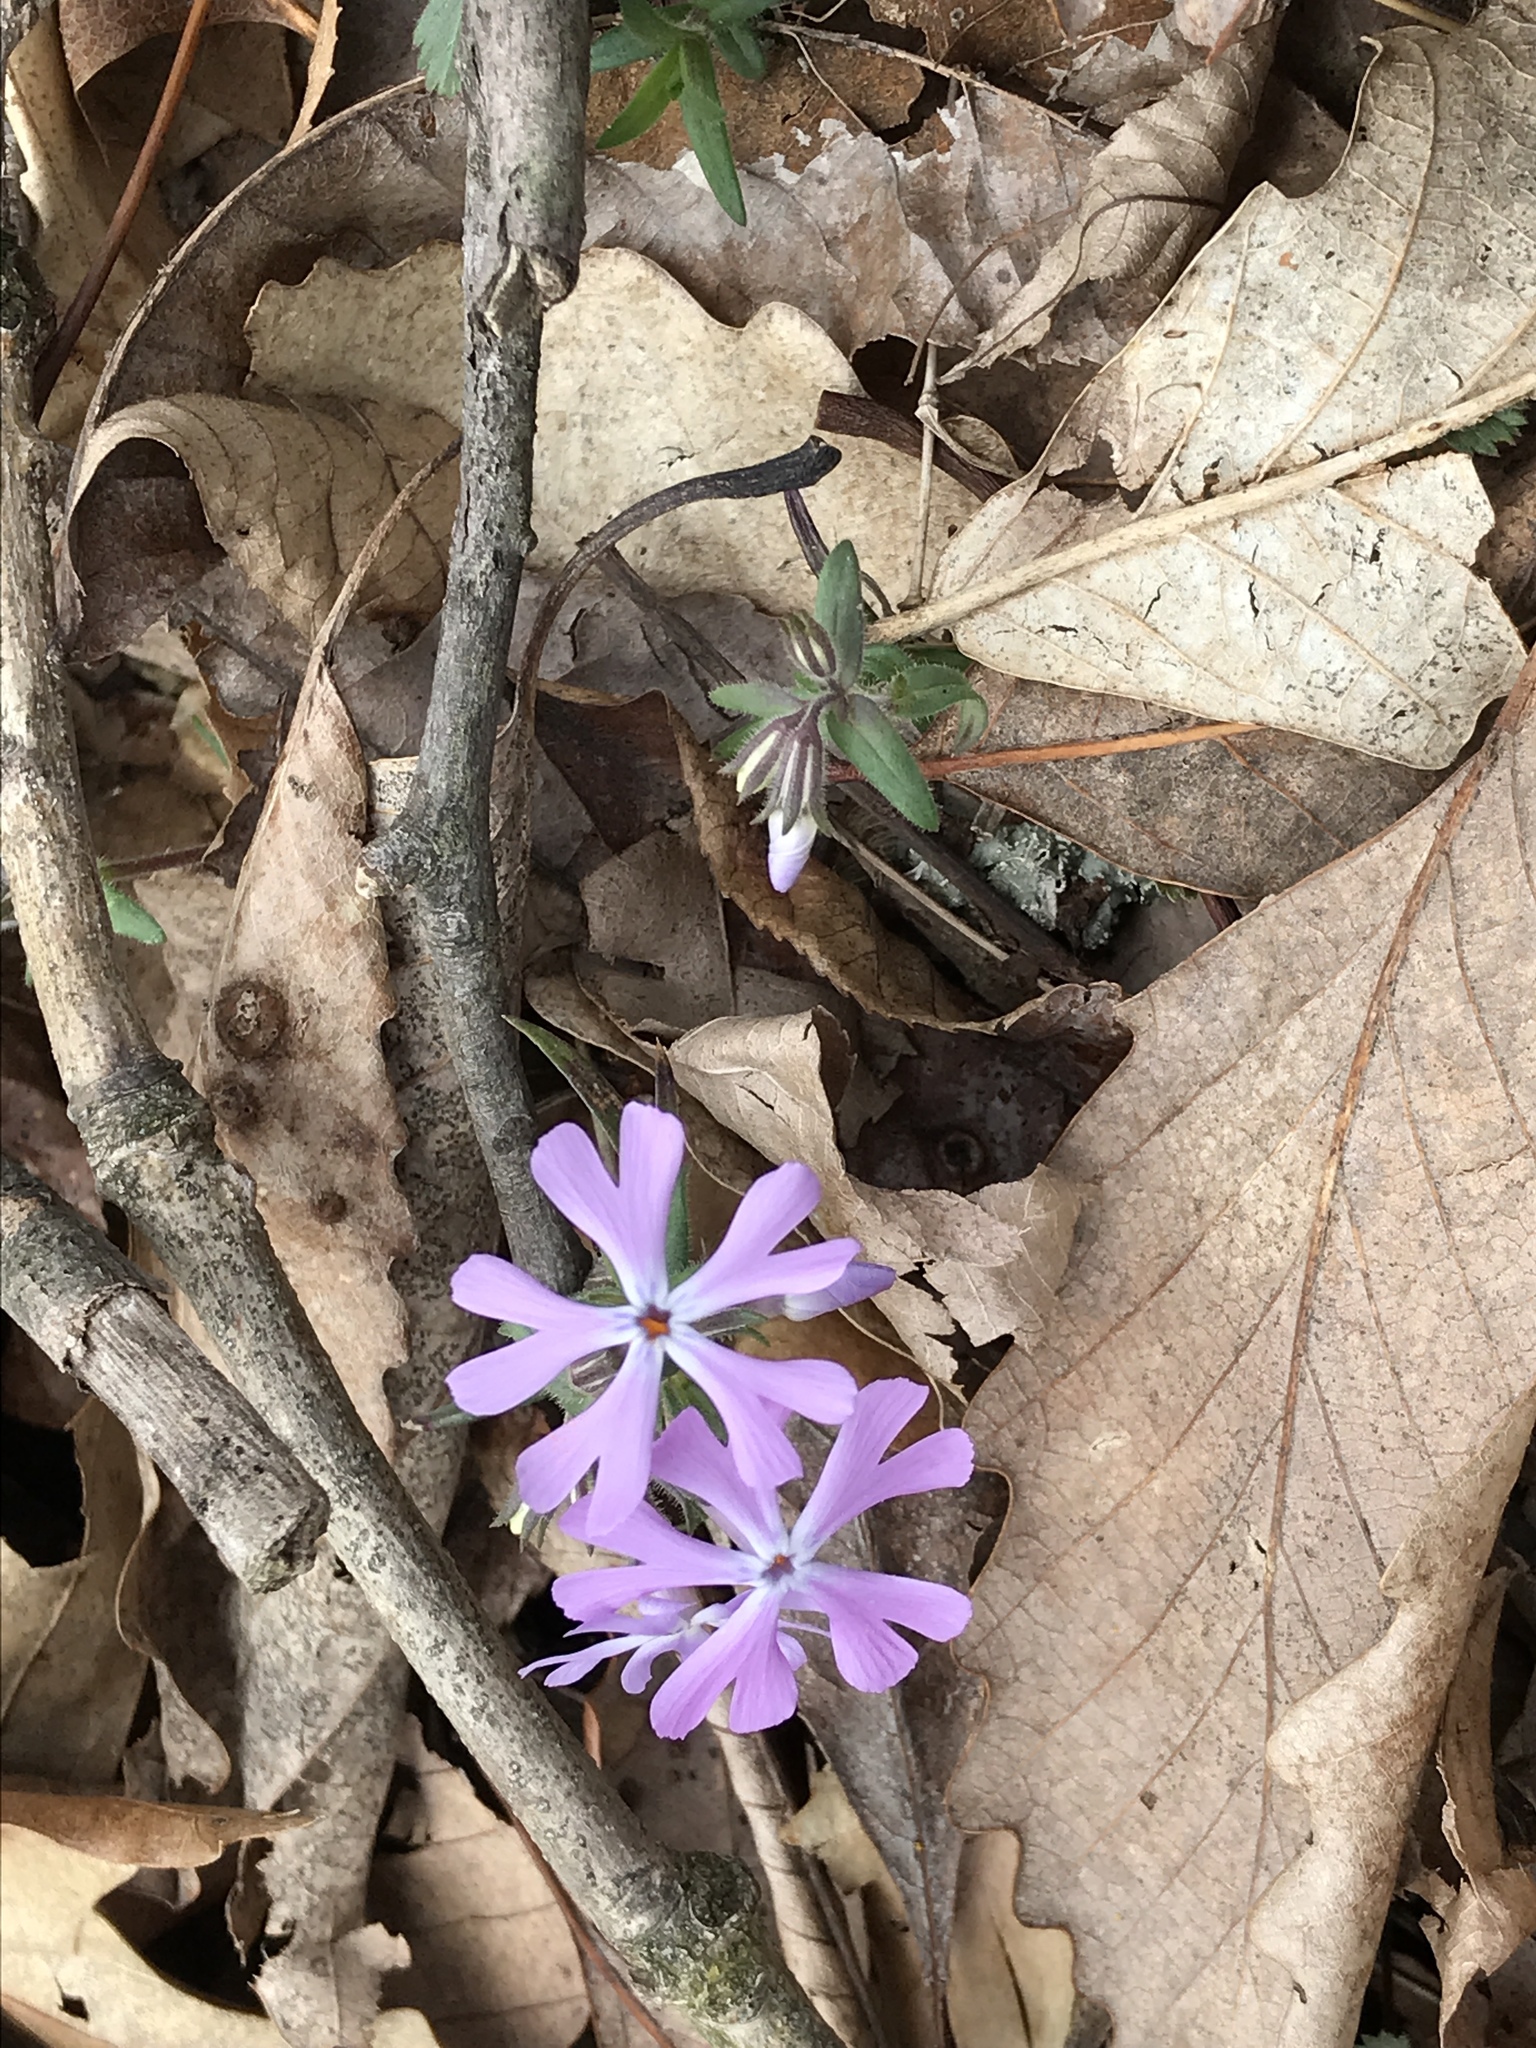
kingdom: Plantae
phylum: Tracheophyta
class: Magnoliopsida
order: Ericales
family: Polemoniaceae
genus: Phlox
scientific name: Phlox bifida
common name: Sand phlox
